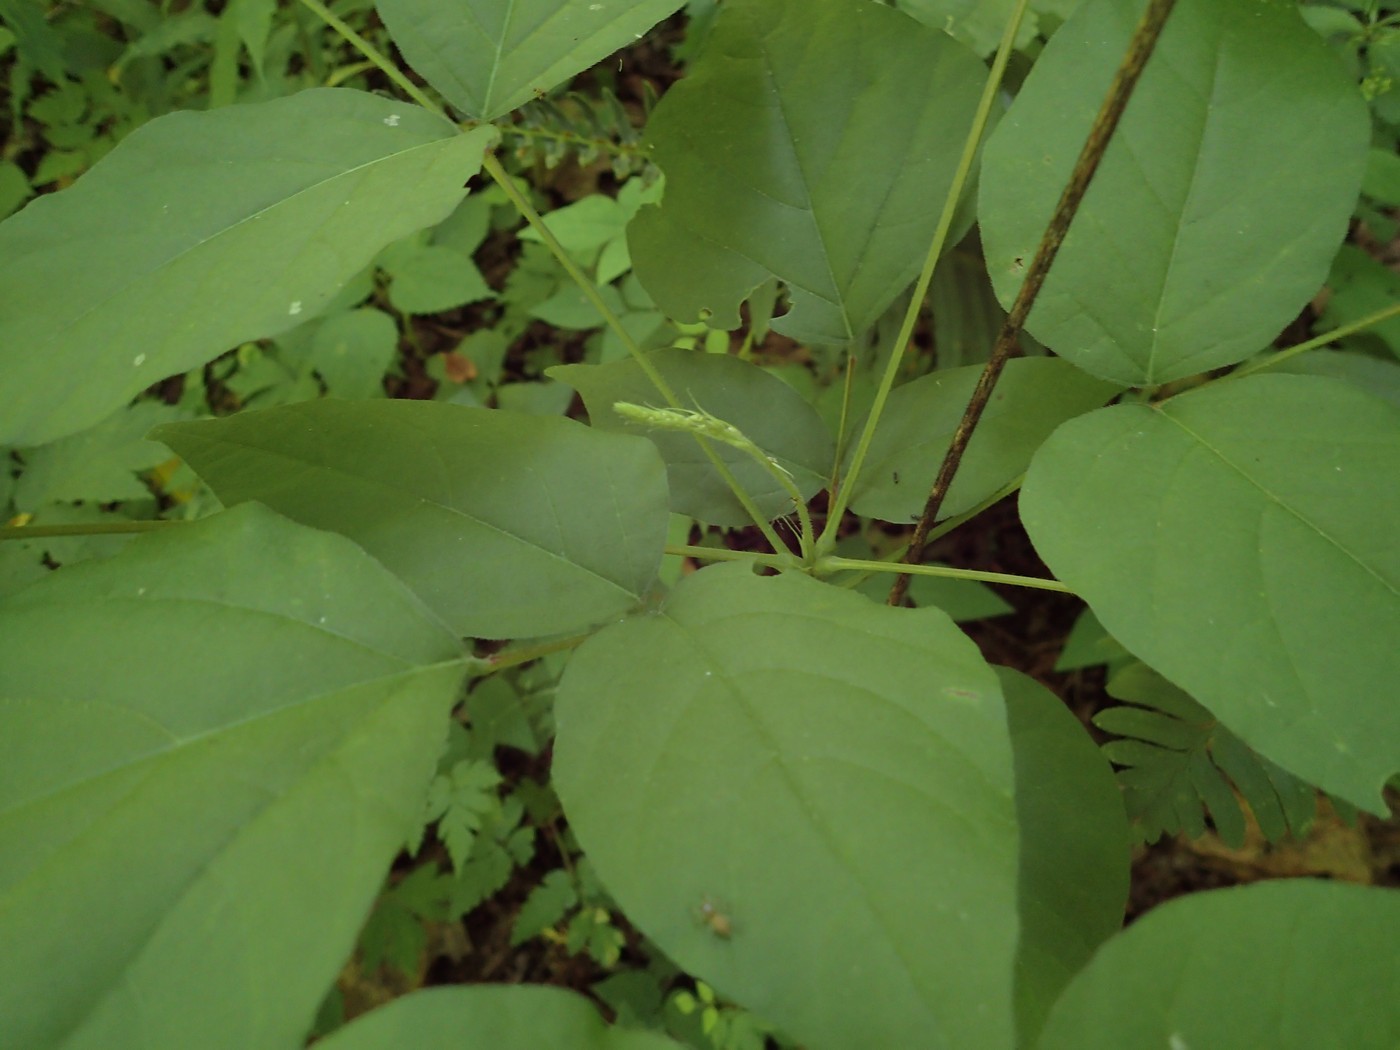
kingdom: Plantae
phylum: Tracheophyta
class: Magnoliopsida
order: Fabales
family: Fabaceae
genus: Hylodesmum
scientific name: Hylodesmum glutinosum
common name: Clustered-leaved tick-trefoil
